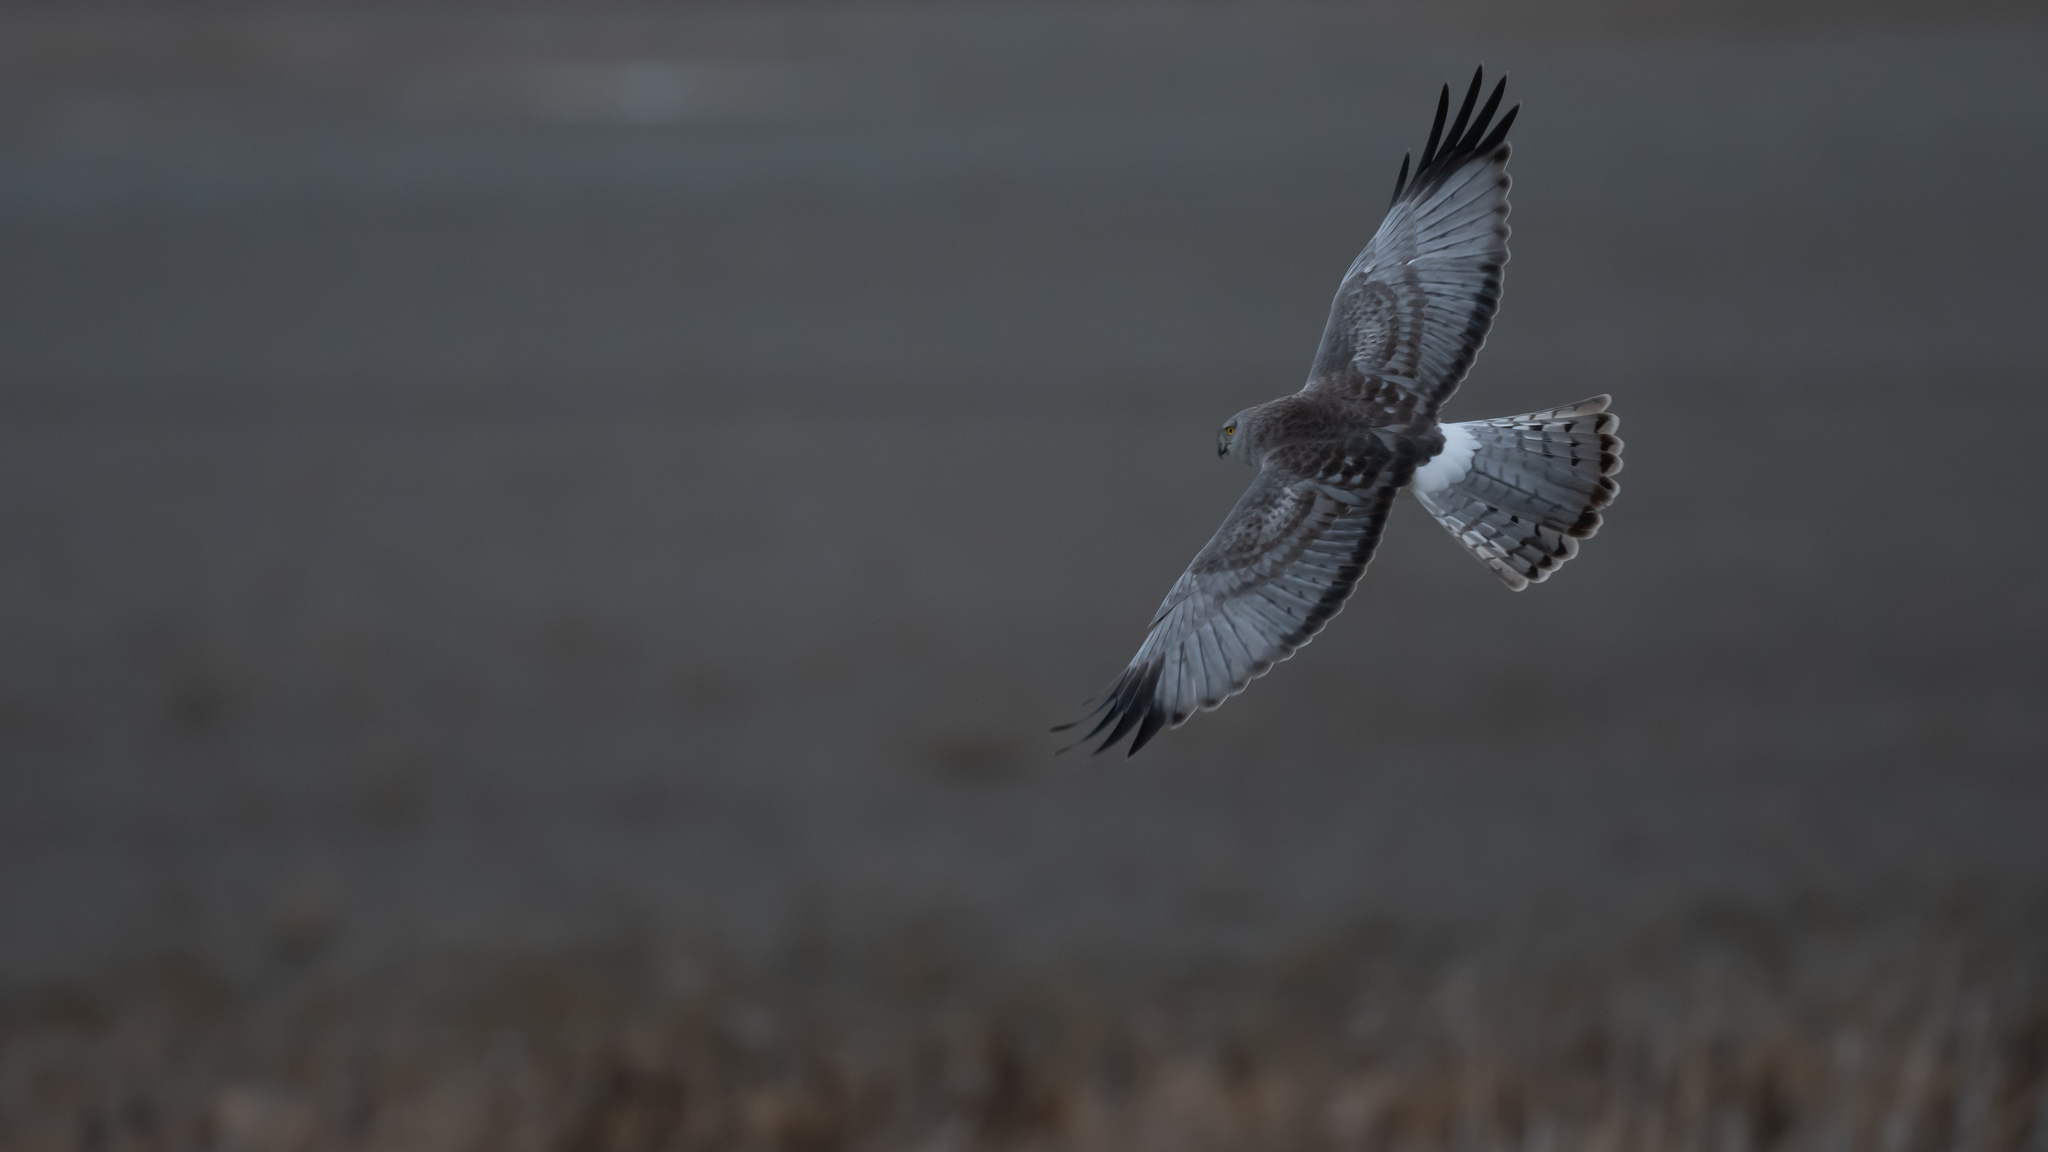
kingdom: Animalia
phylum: Chordata
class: Aves
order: Accipitriformes
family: Accipitridae
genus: Circus
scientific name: Circus cyaneus
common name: Hen harrier
